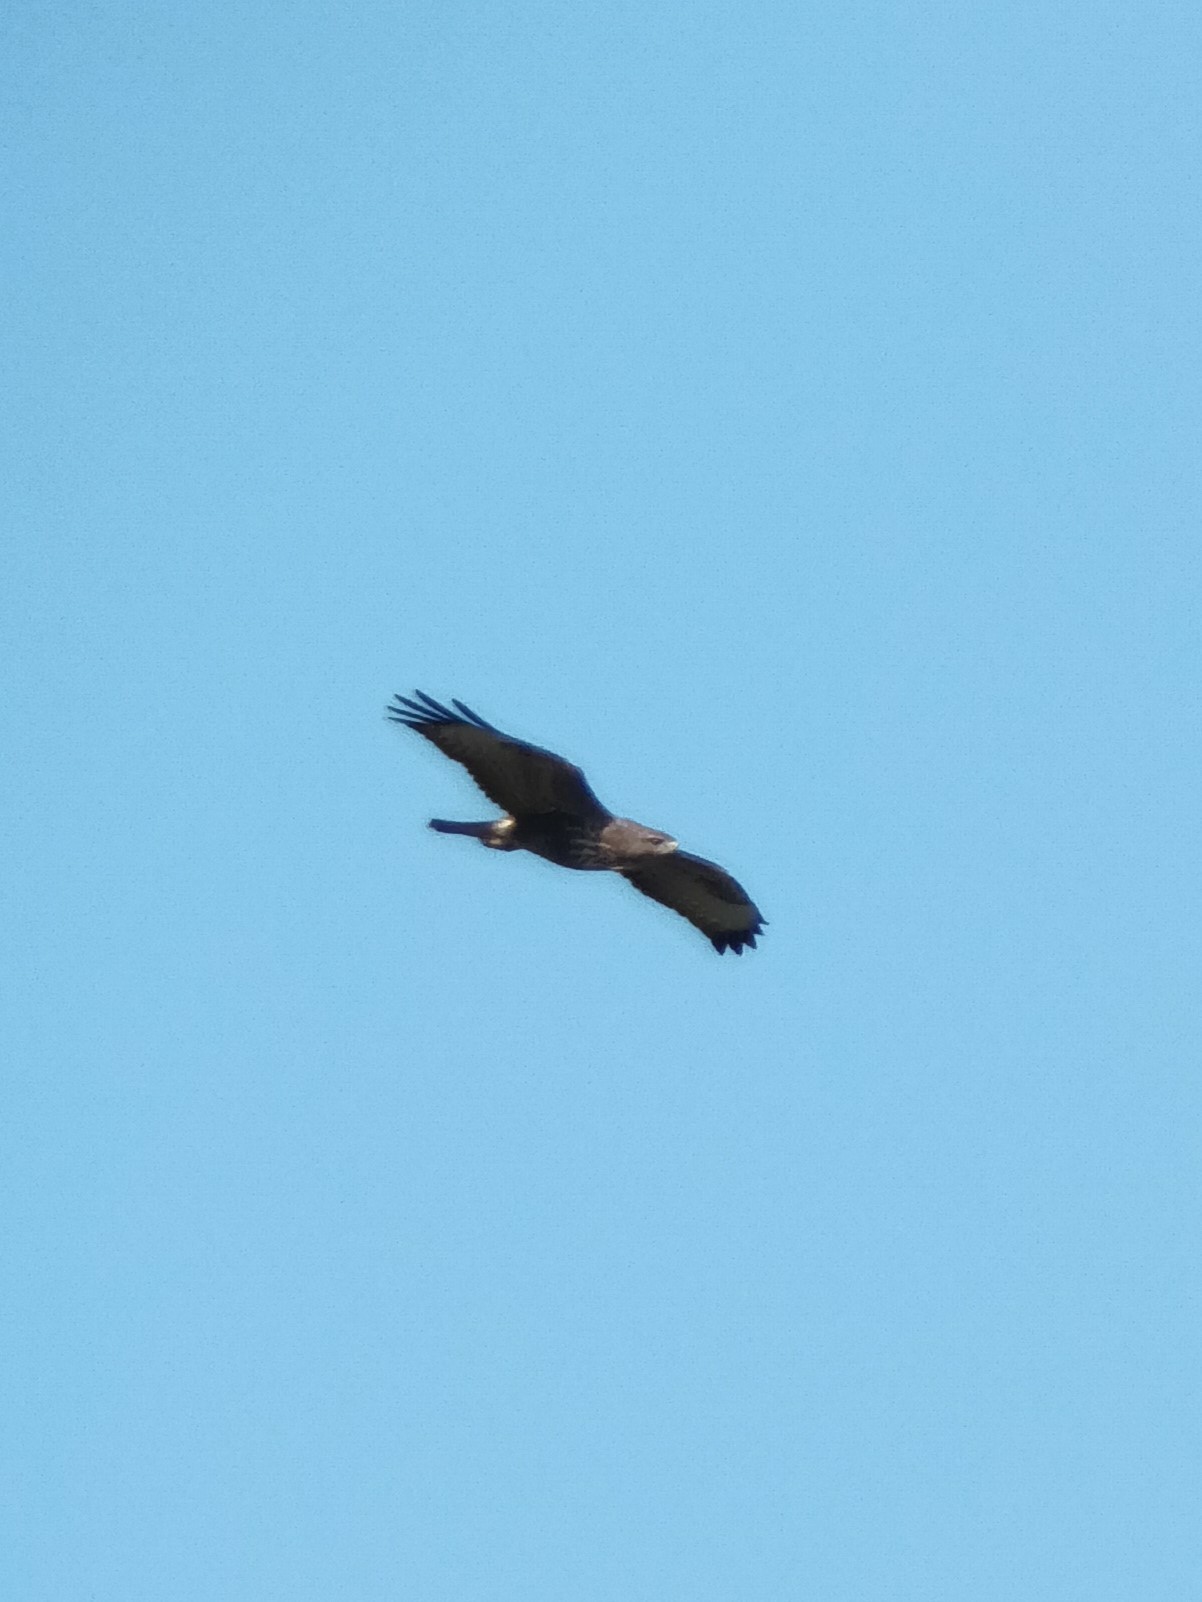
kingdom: Animalia
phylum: Chordata
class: Aves
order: Accipitriformes
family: Accipitridae
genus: Buteo
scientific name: Buteo buteo
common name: Common buzzard
